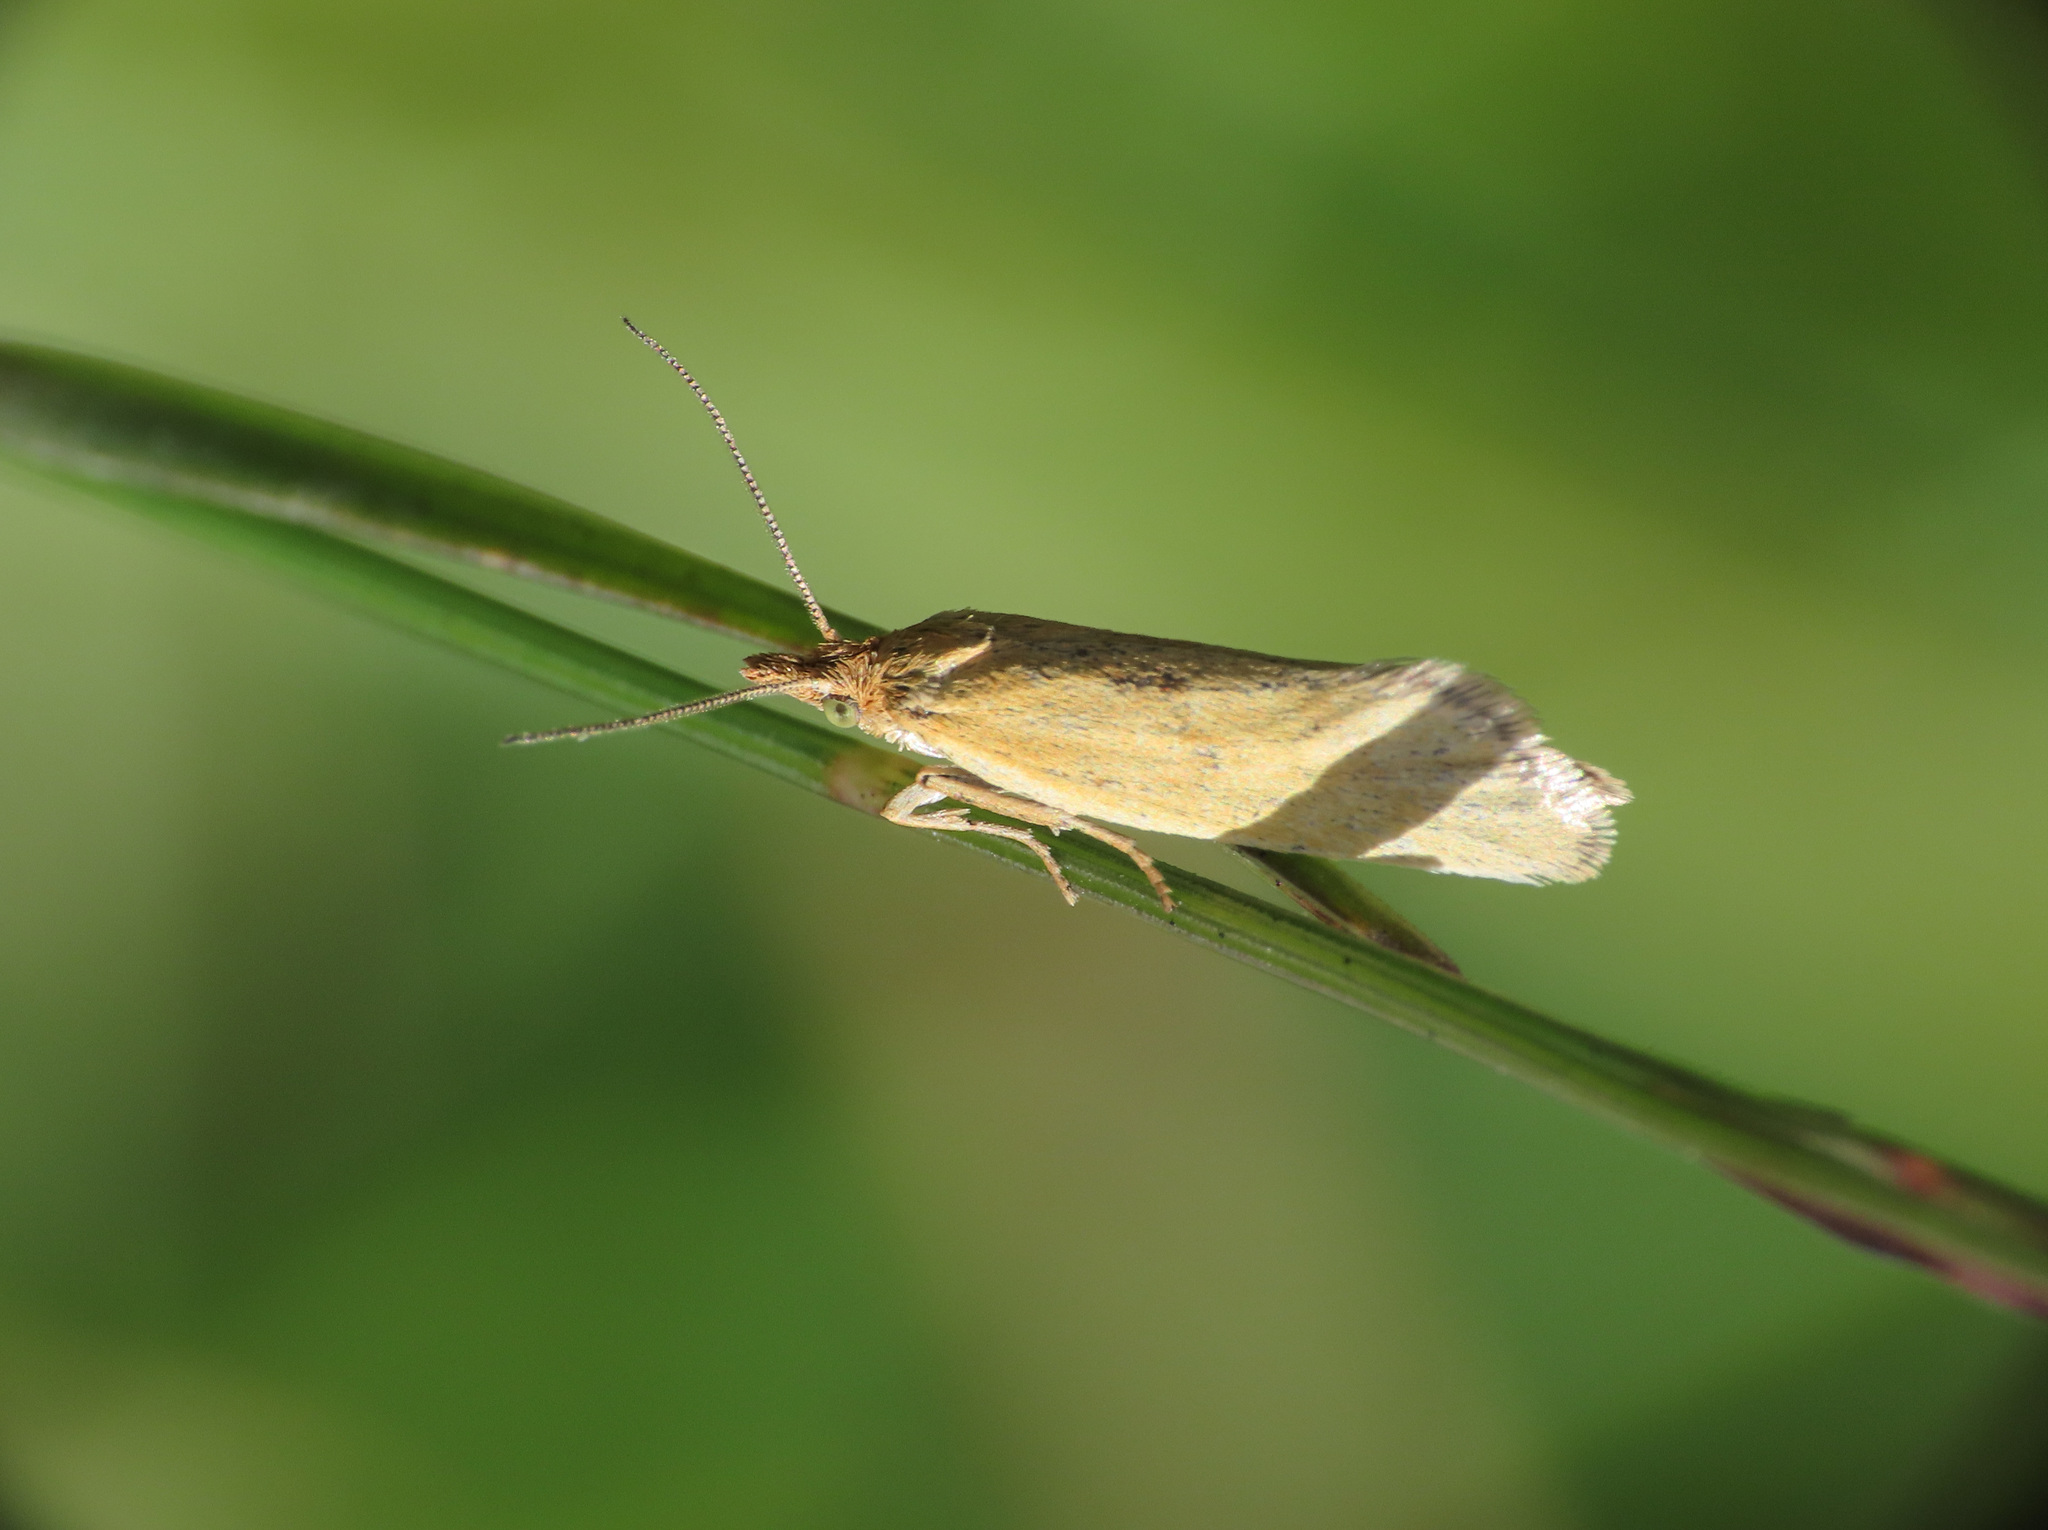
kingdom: Animalia
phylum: Arthropoda
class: Insecta
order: Lepidoptera
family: Tortricidae
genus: Eana
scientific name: Eana osseana
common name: Dotted shade
